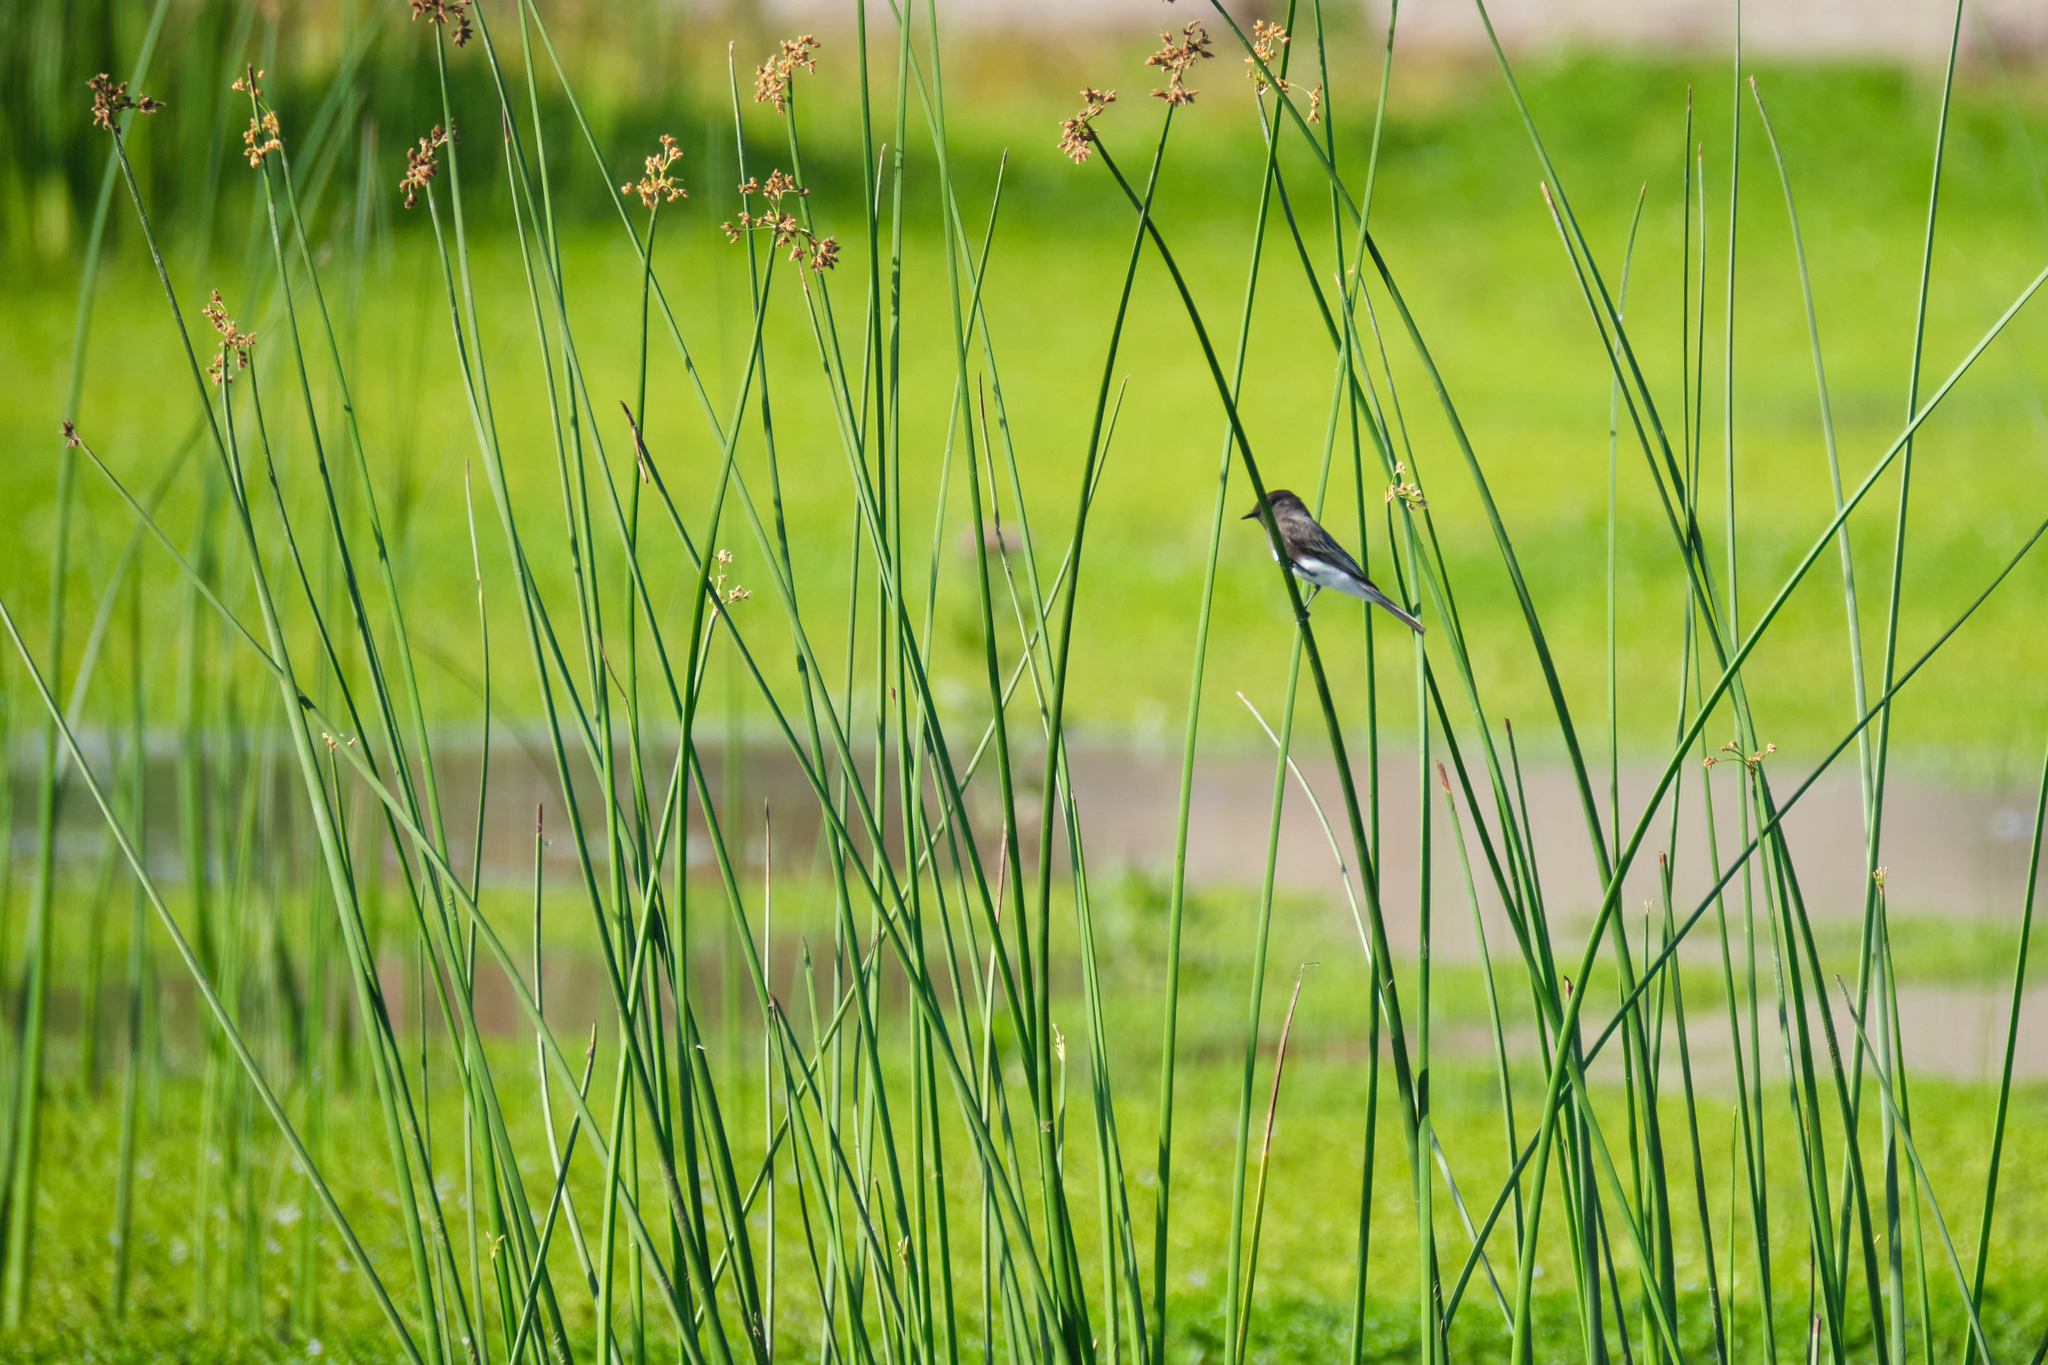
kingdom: Animalia
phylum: Chordata
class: Aves
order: Passeriformes
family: Tyrannidae
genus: Sayornis
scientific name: Sayornis nigricans
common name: Black phoebe
